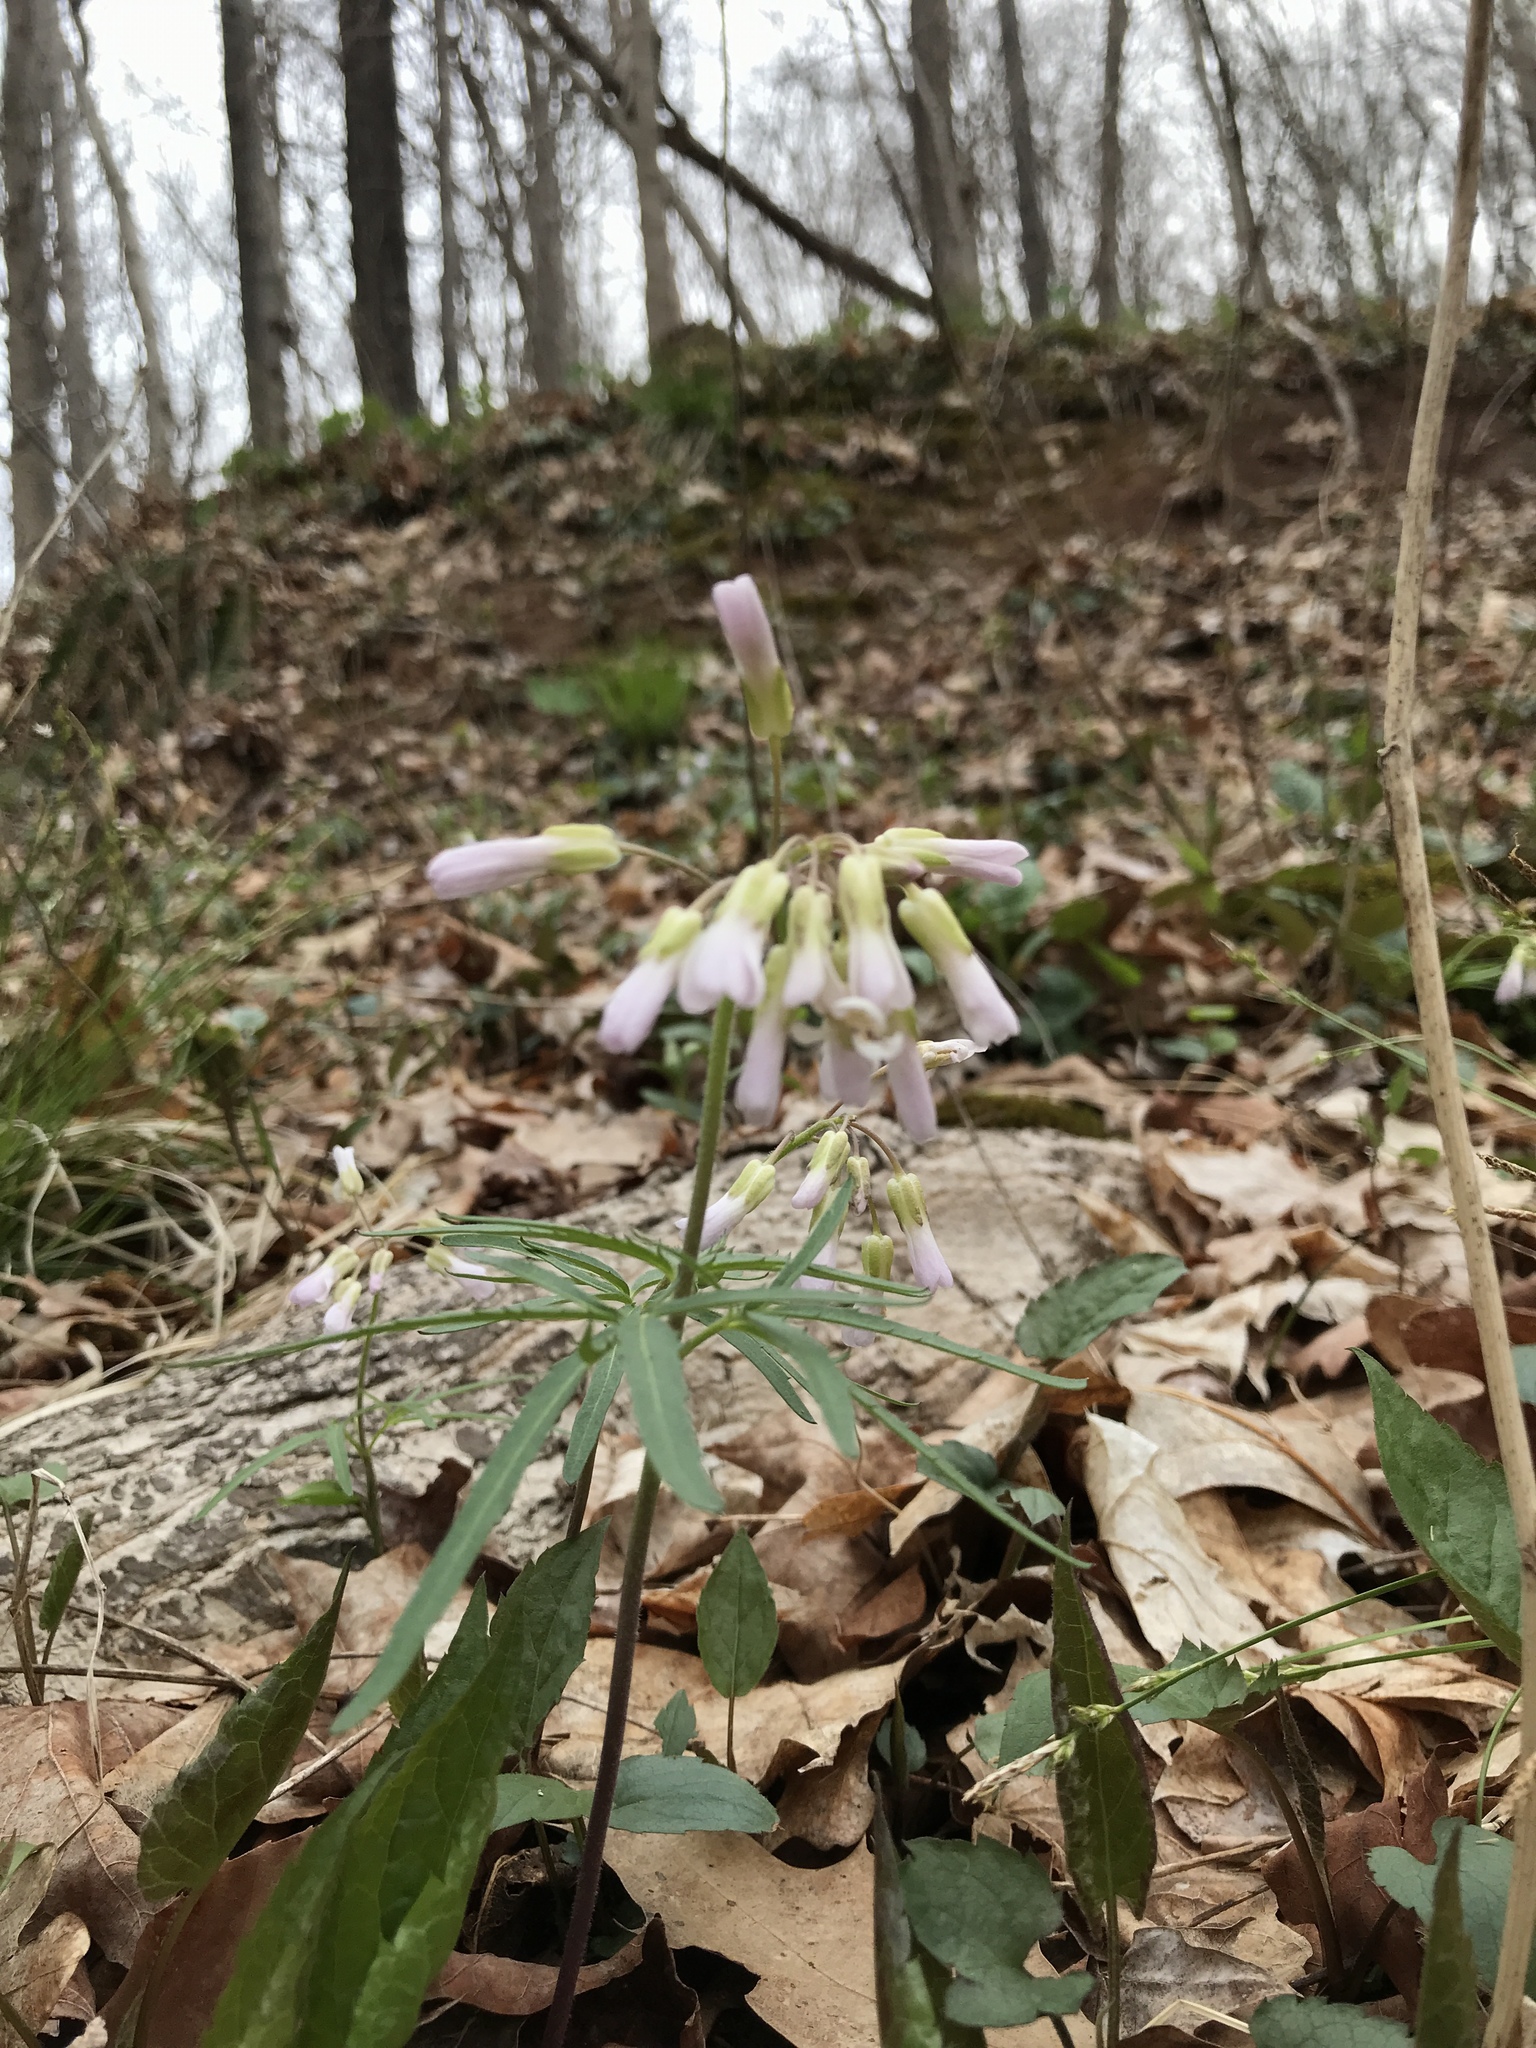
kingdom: Plantae
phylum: Tracheophyta
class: Magnoliopsida
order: Brassicales
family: Brassicaceae
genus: Cardamine
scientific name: Cardamine concatenata
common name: Cut-leaf toothcup
